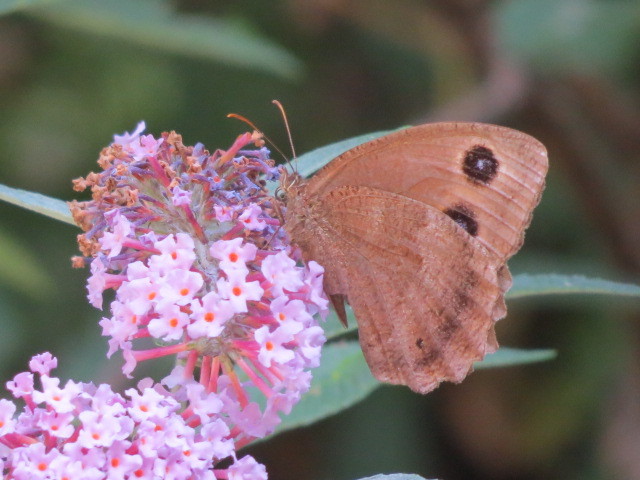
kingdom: Animalia
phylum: Arthropoda
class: Insecta
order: Lepidoptera
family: Nymphalidae
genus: Minois
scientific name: Minois dryas
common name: Dryad
